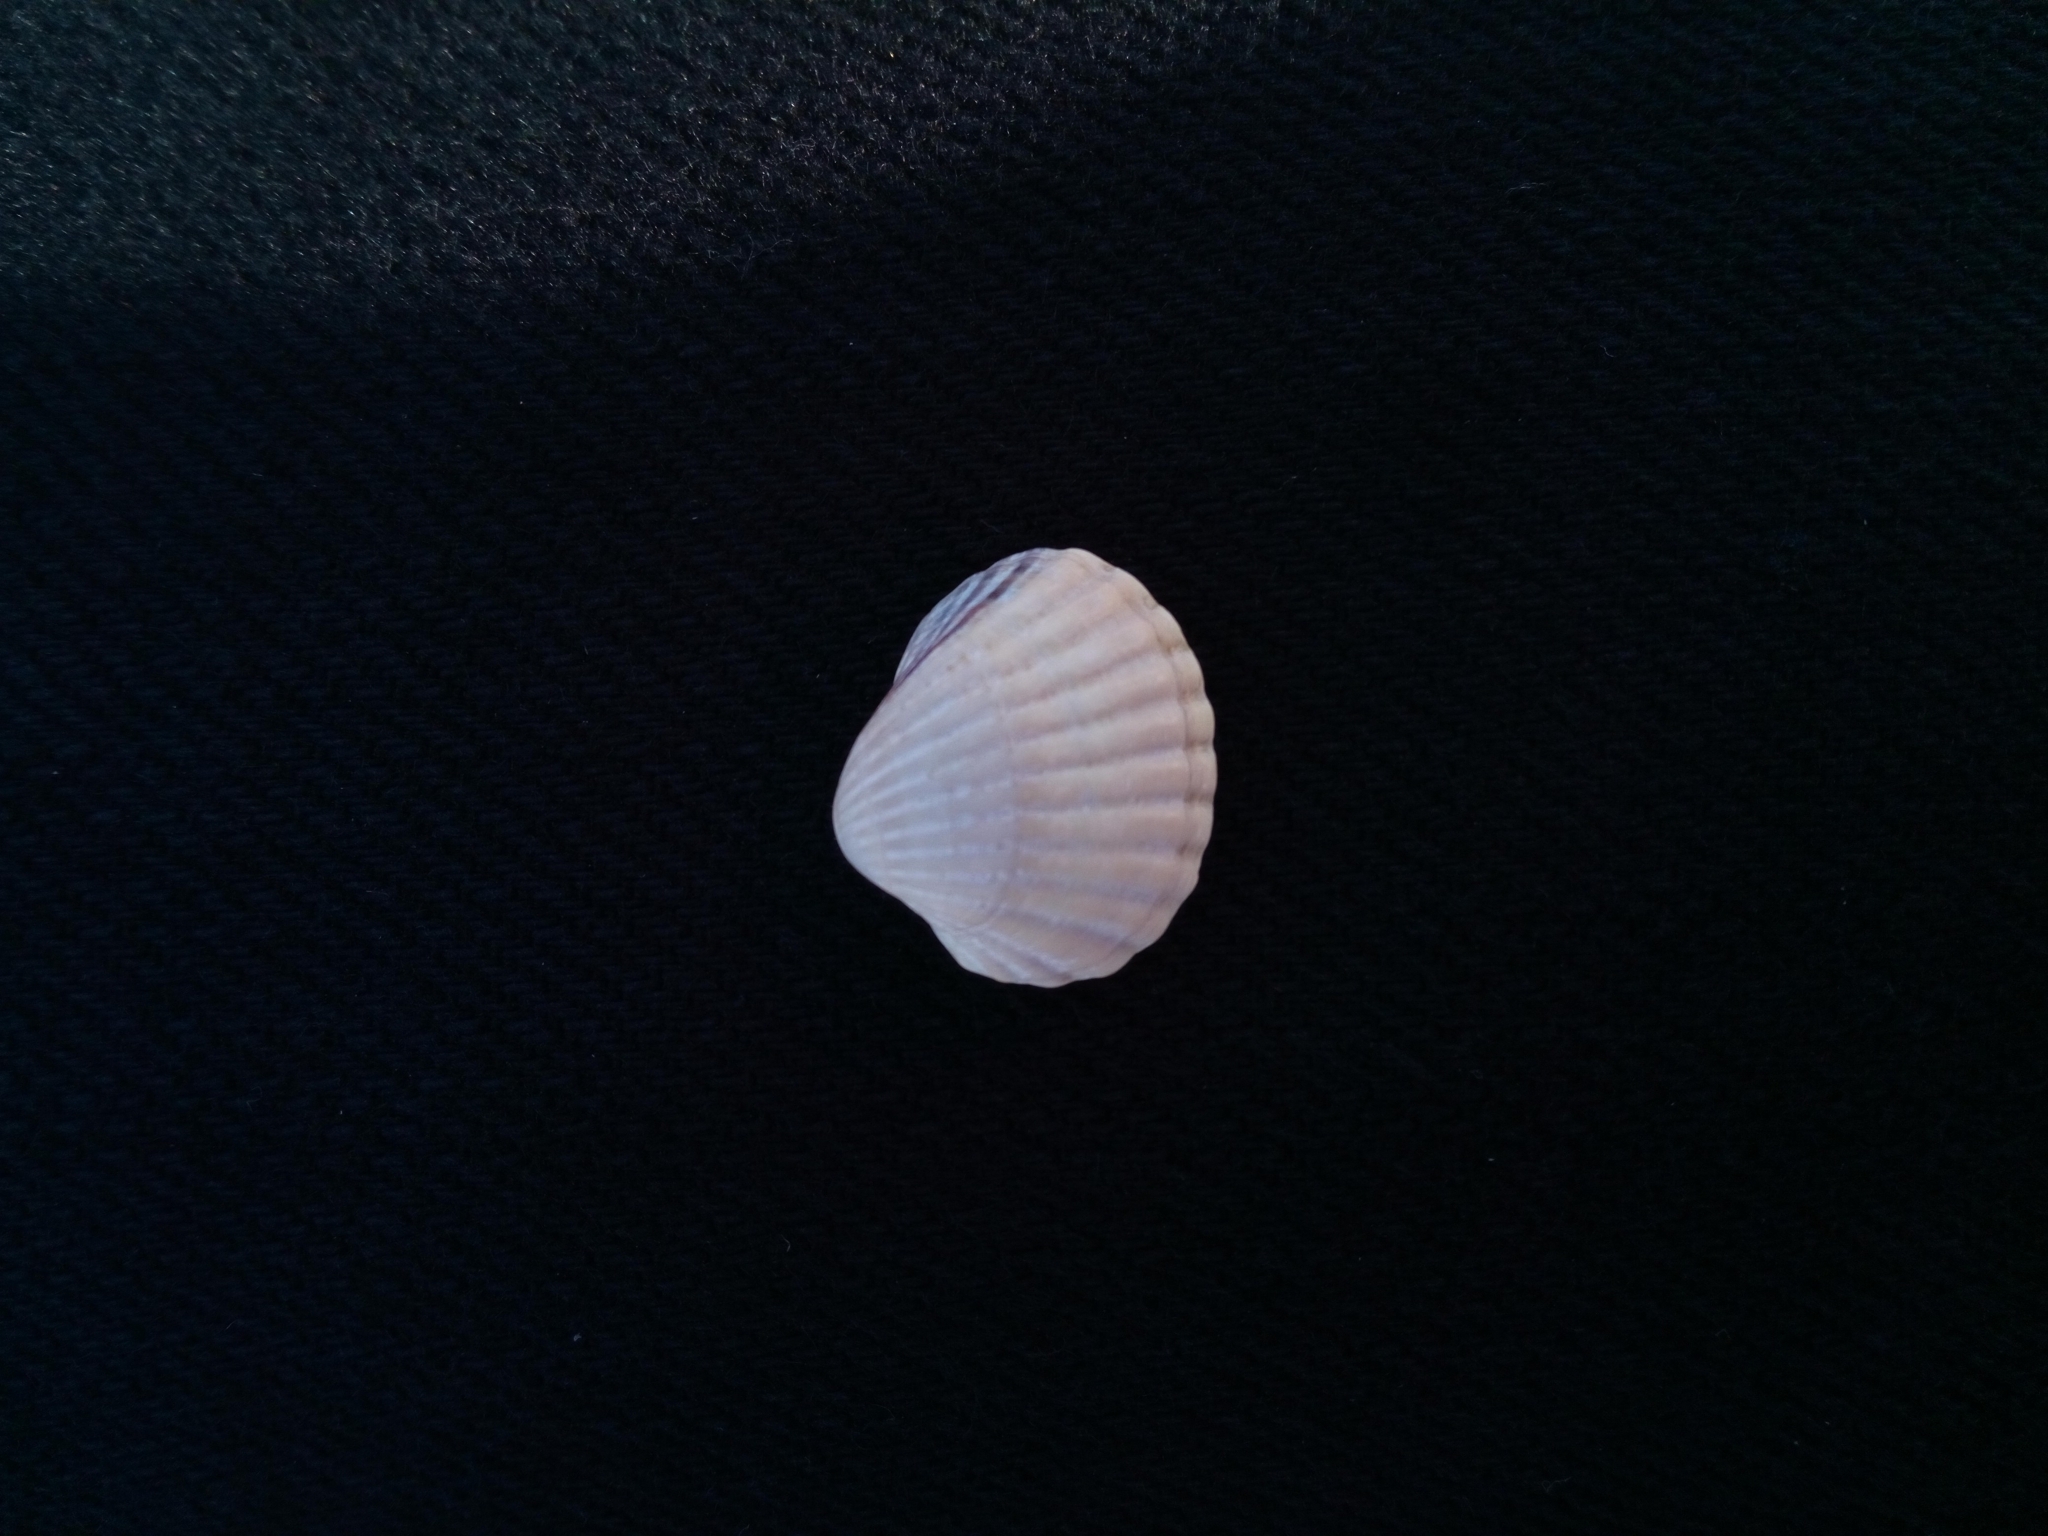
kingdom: Animalia
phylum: Mollusca
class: Bivalvia
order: Cardiida
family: Cardiidae
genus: Cerastoderma
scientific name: Cerastoderma glaucum
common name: Lagoon cockle
